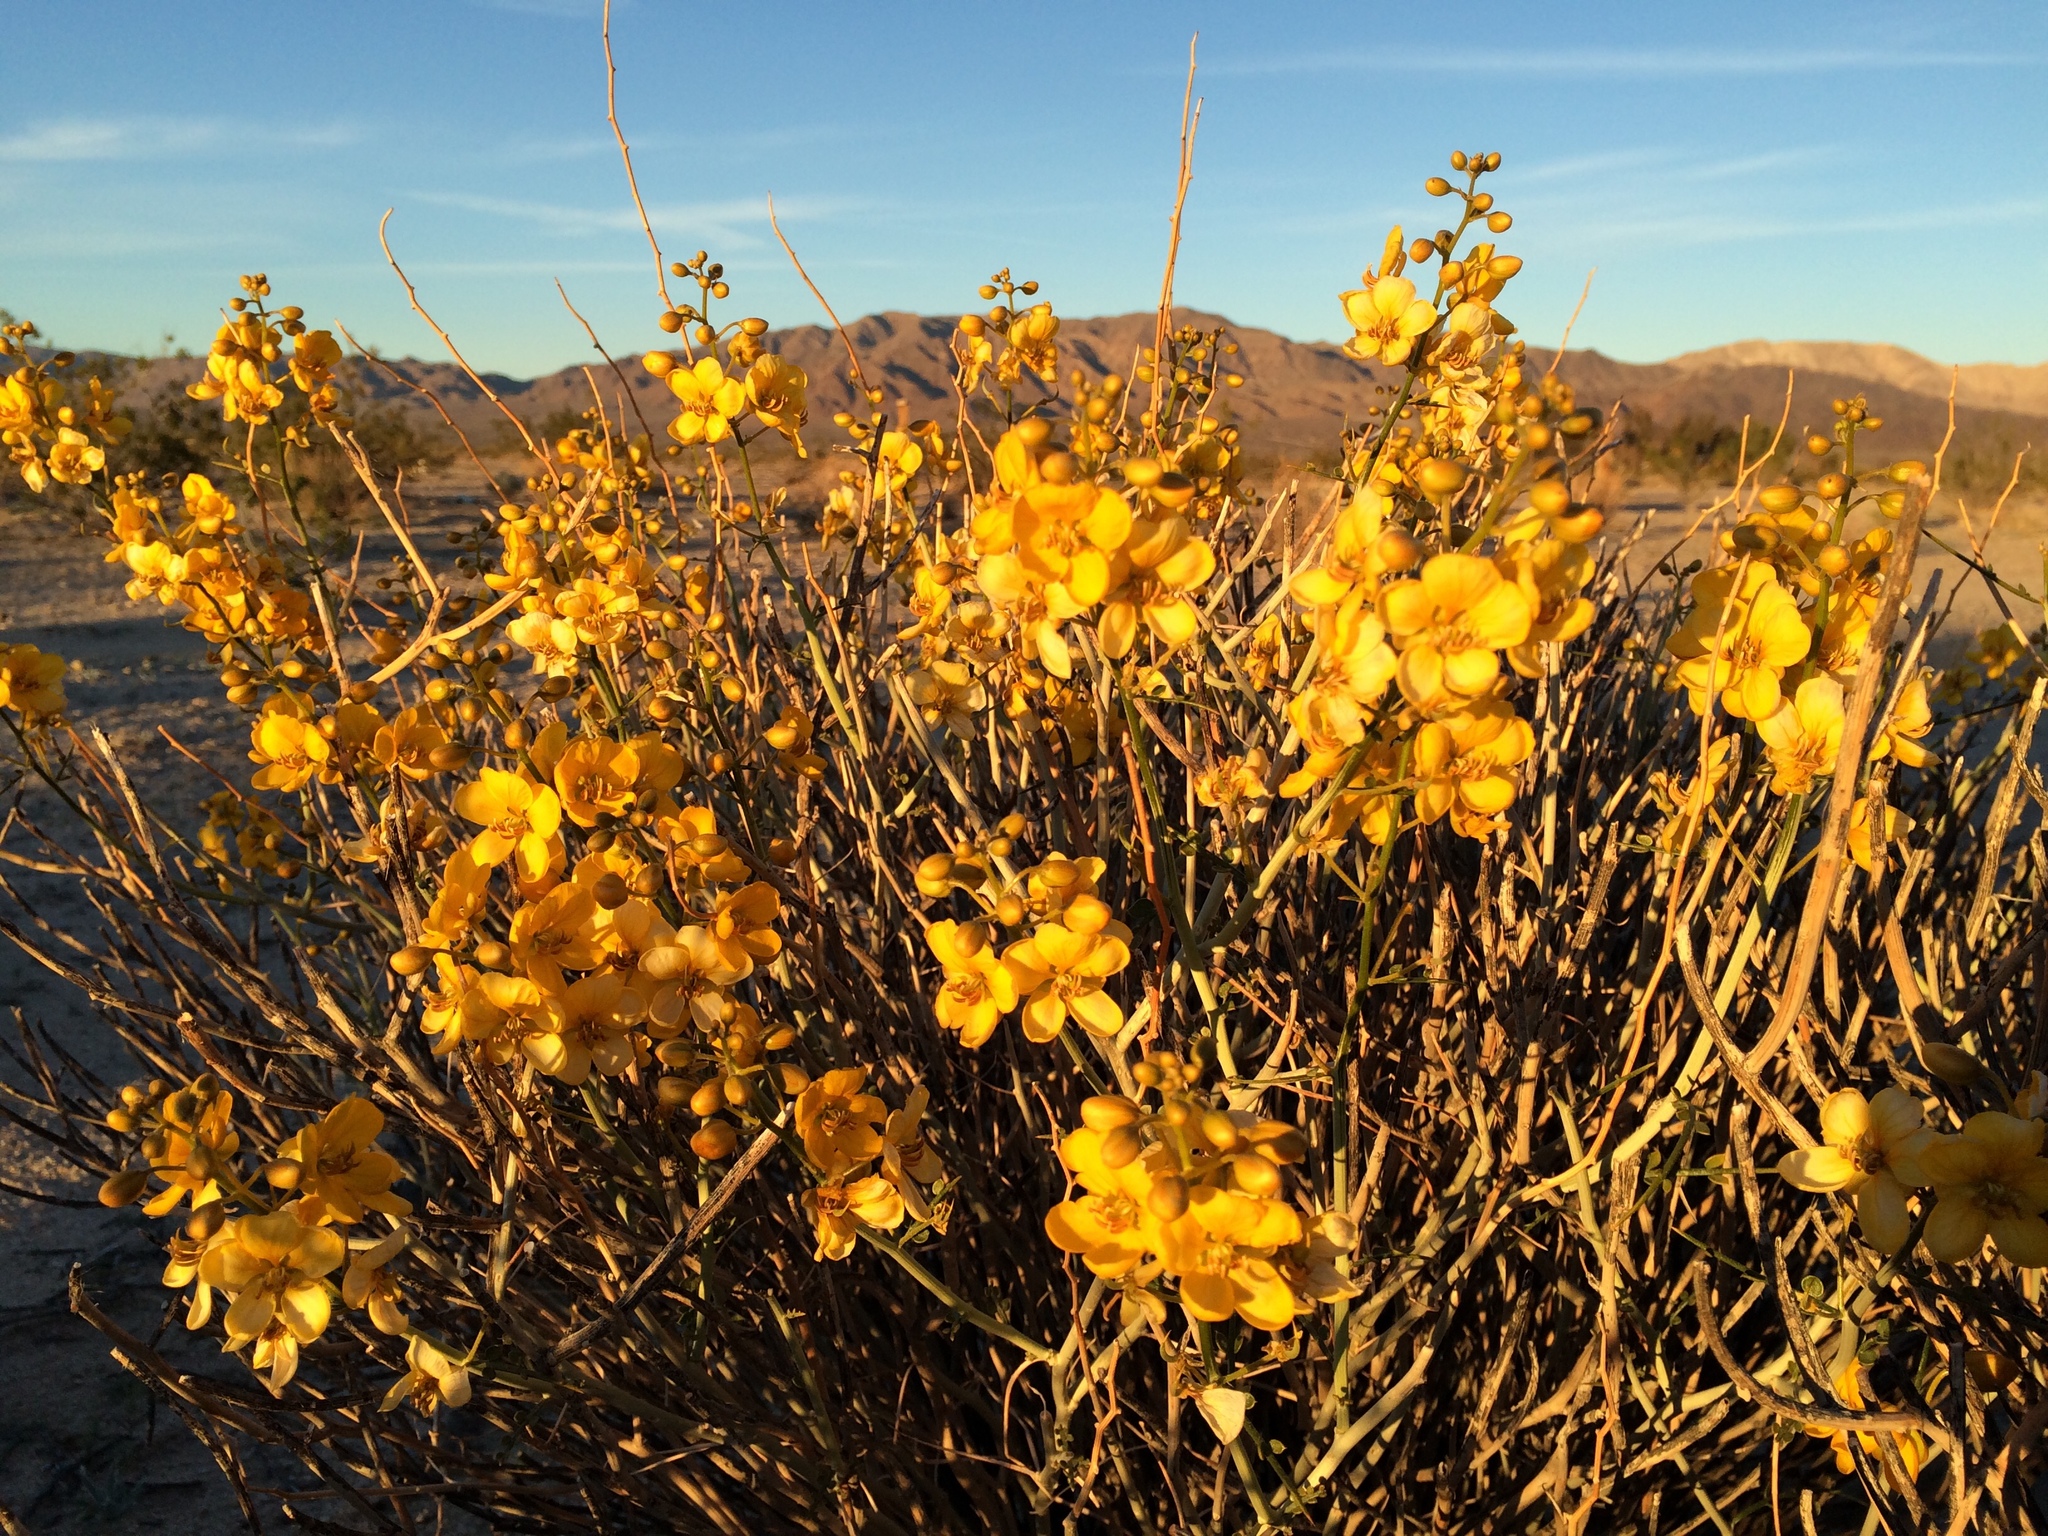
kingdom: Plantae
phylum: Tracheophyta
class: Magnoliopsida
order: Fabales
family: Fabaceae
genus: Senna
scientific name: Senna armata
